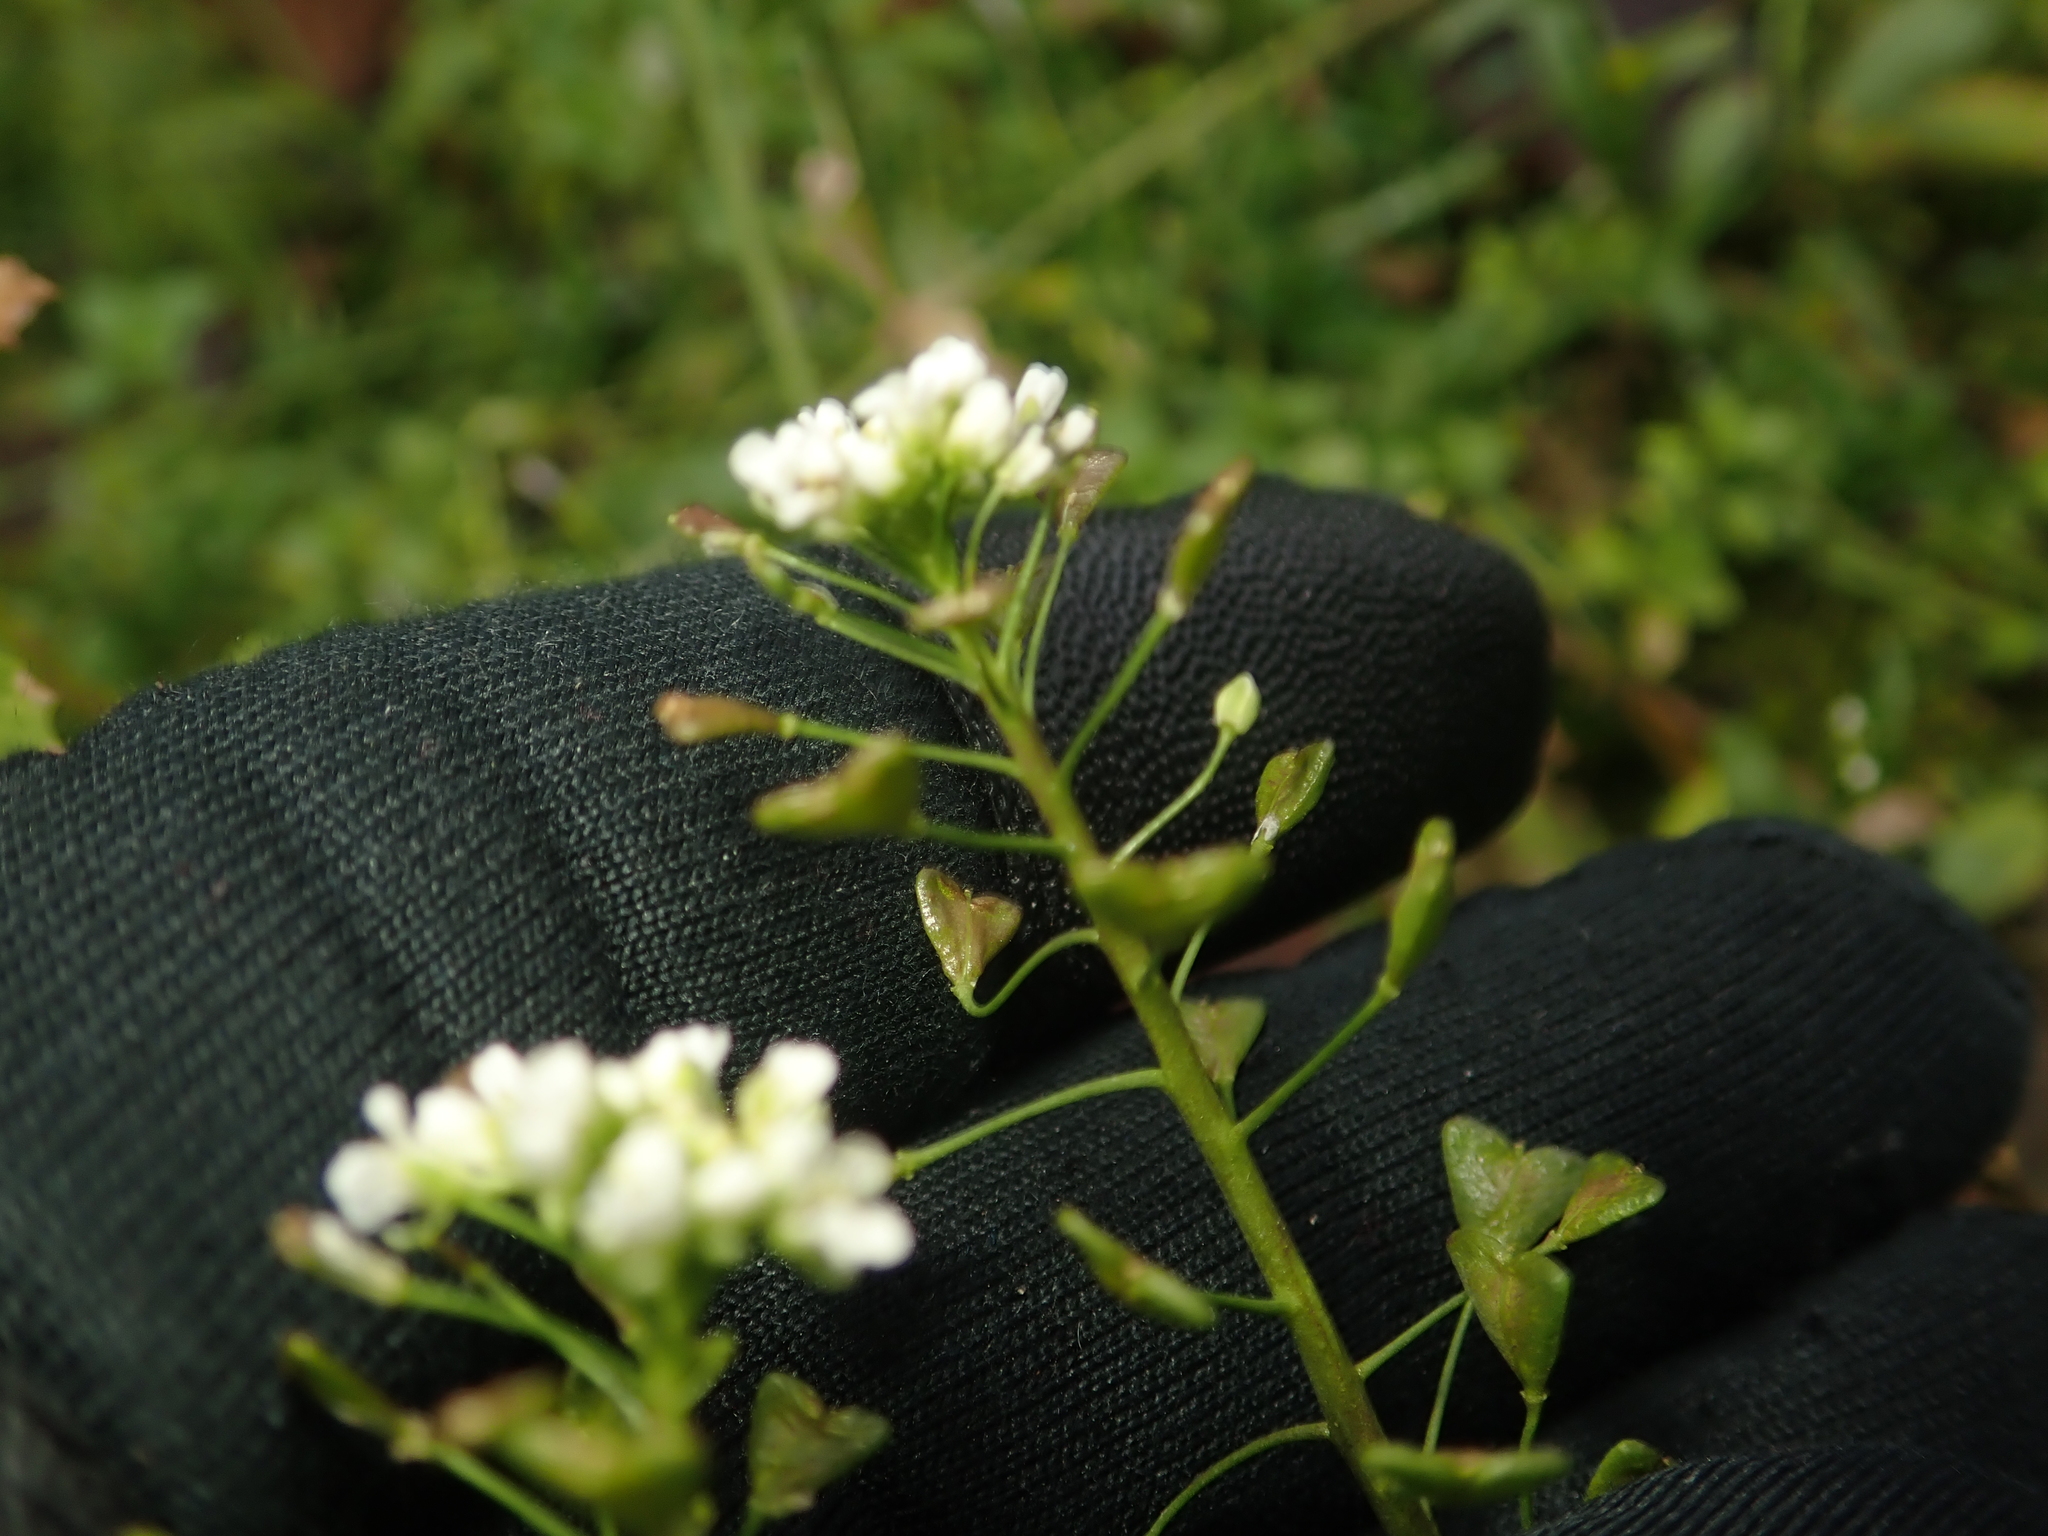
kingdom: Plantae
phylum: Tracheophyta
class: Magnoliopsida
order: Brassicales
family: Brassicaceae
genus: Capsella
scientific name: Capsella bursa-pastoris
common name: Shepherd's purse
